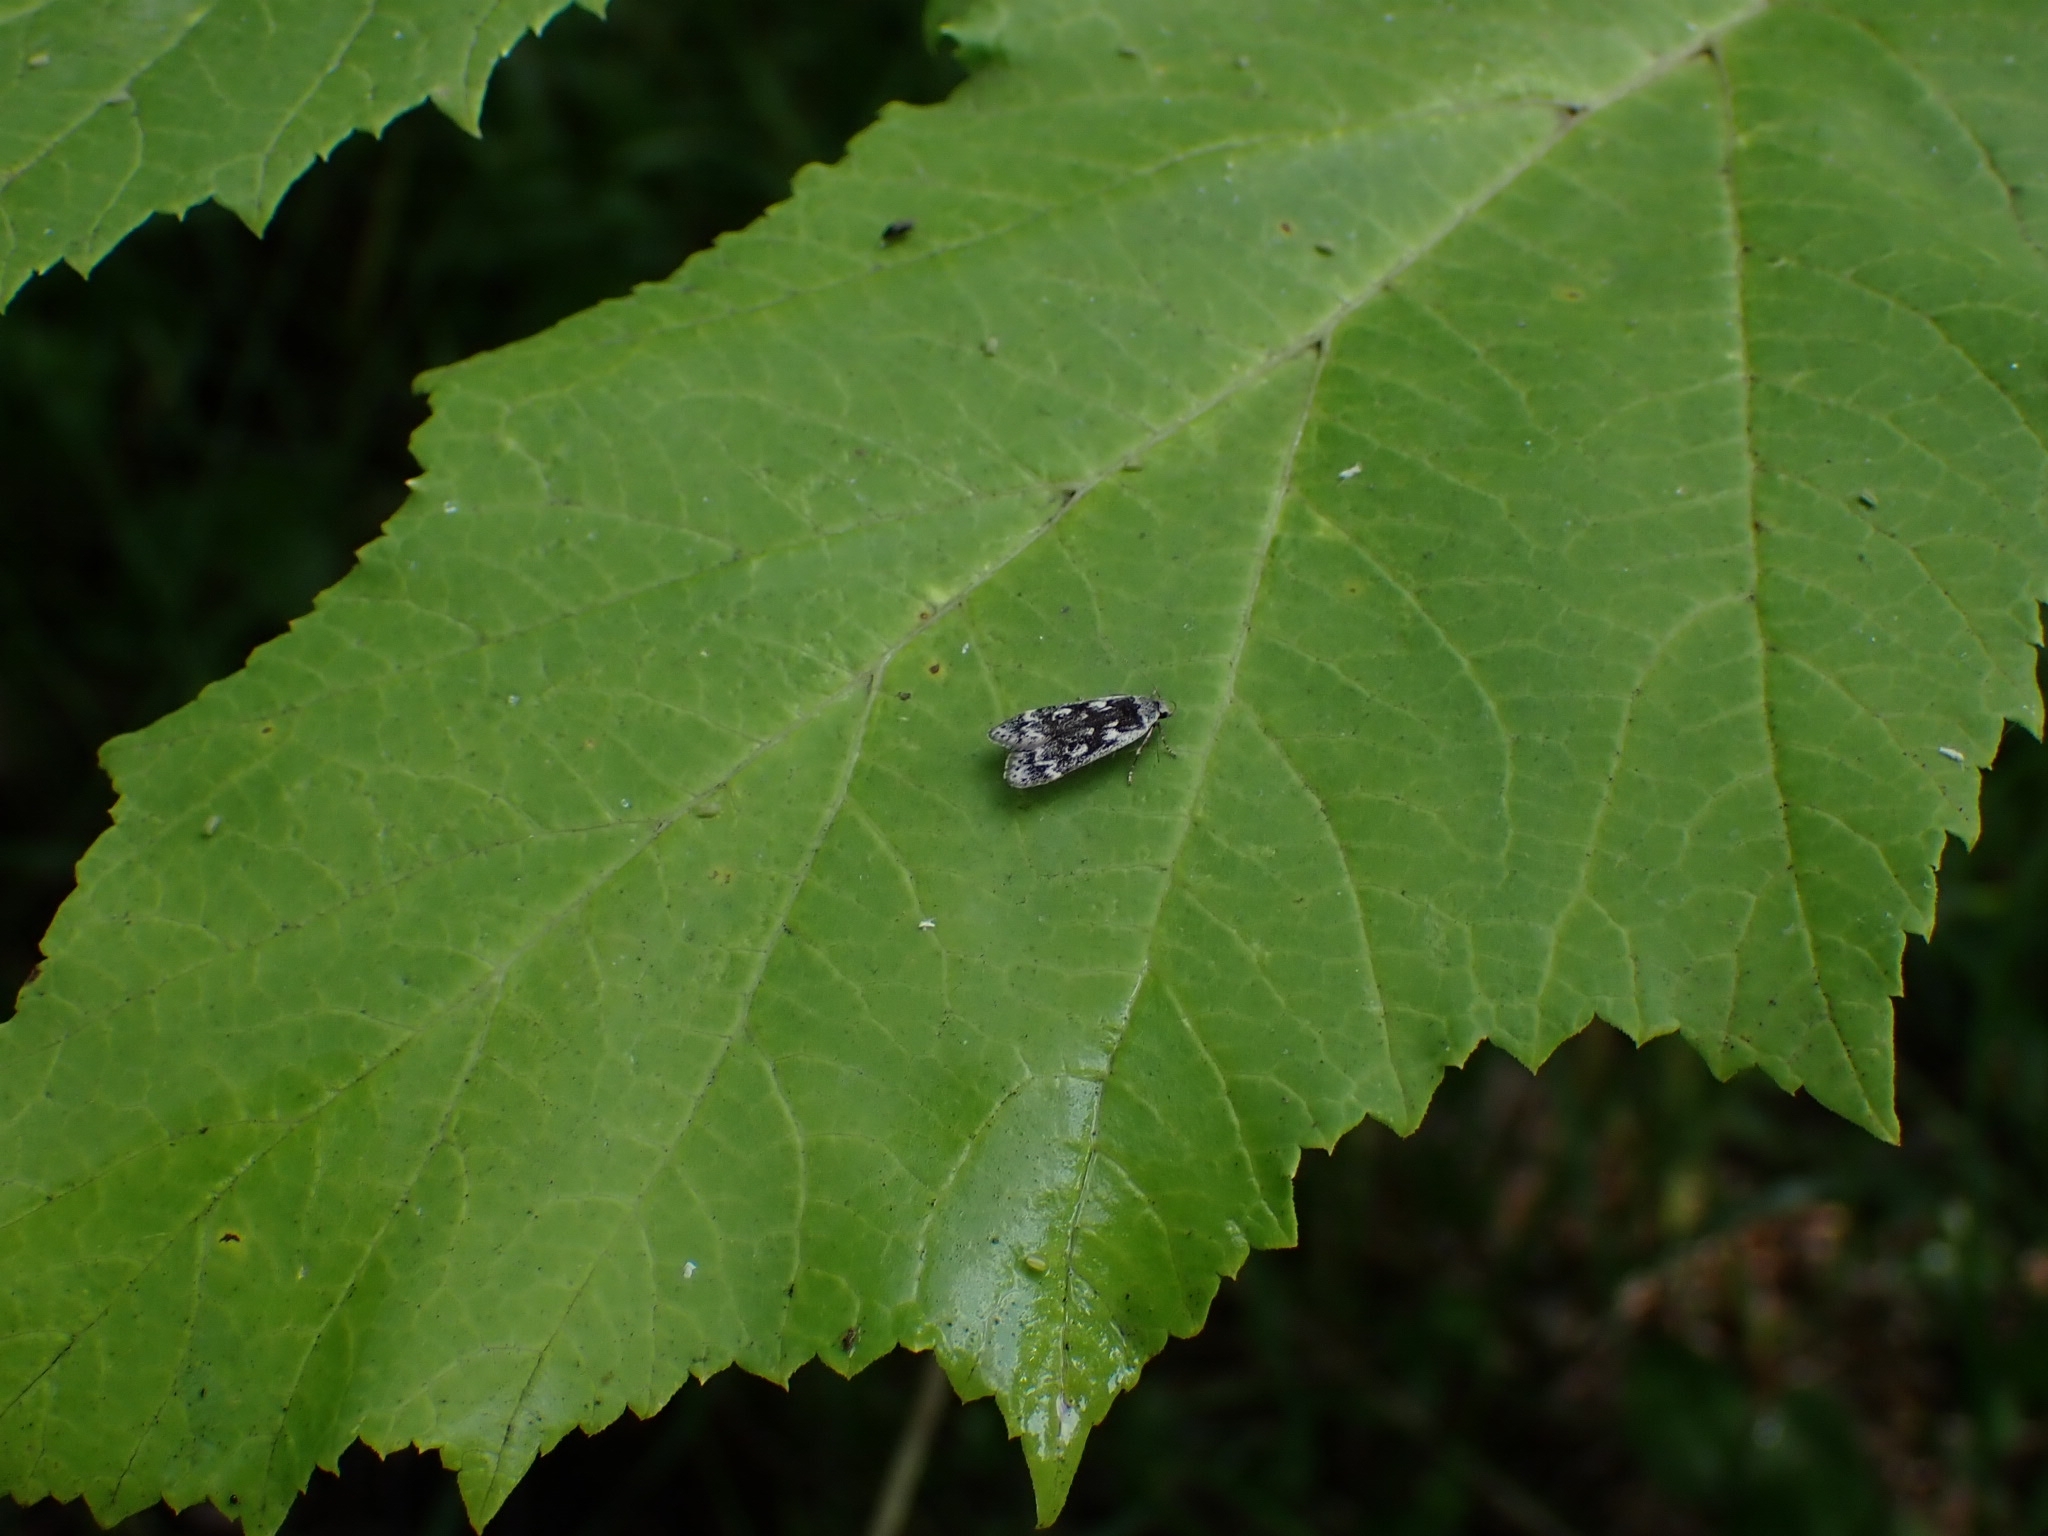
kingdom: Animalia
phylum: Arthropoda
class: Insecta
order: Lepidoptera
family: Gelechiidae
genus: Anacampsis
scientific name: Anacampsis blattariella
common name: Birch sober
